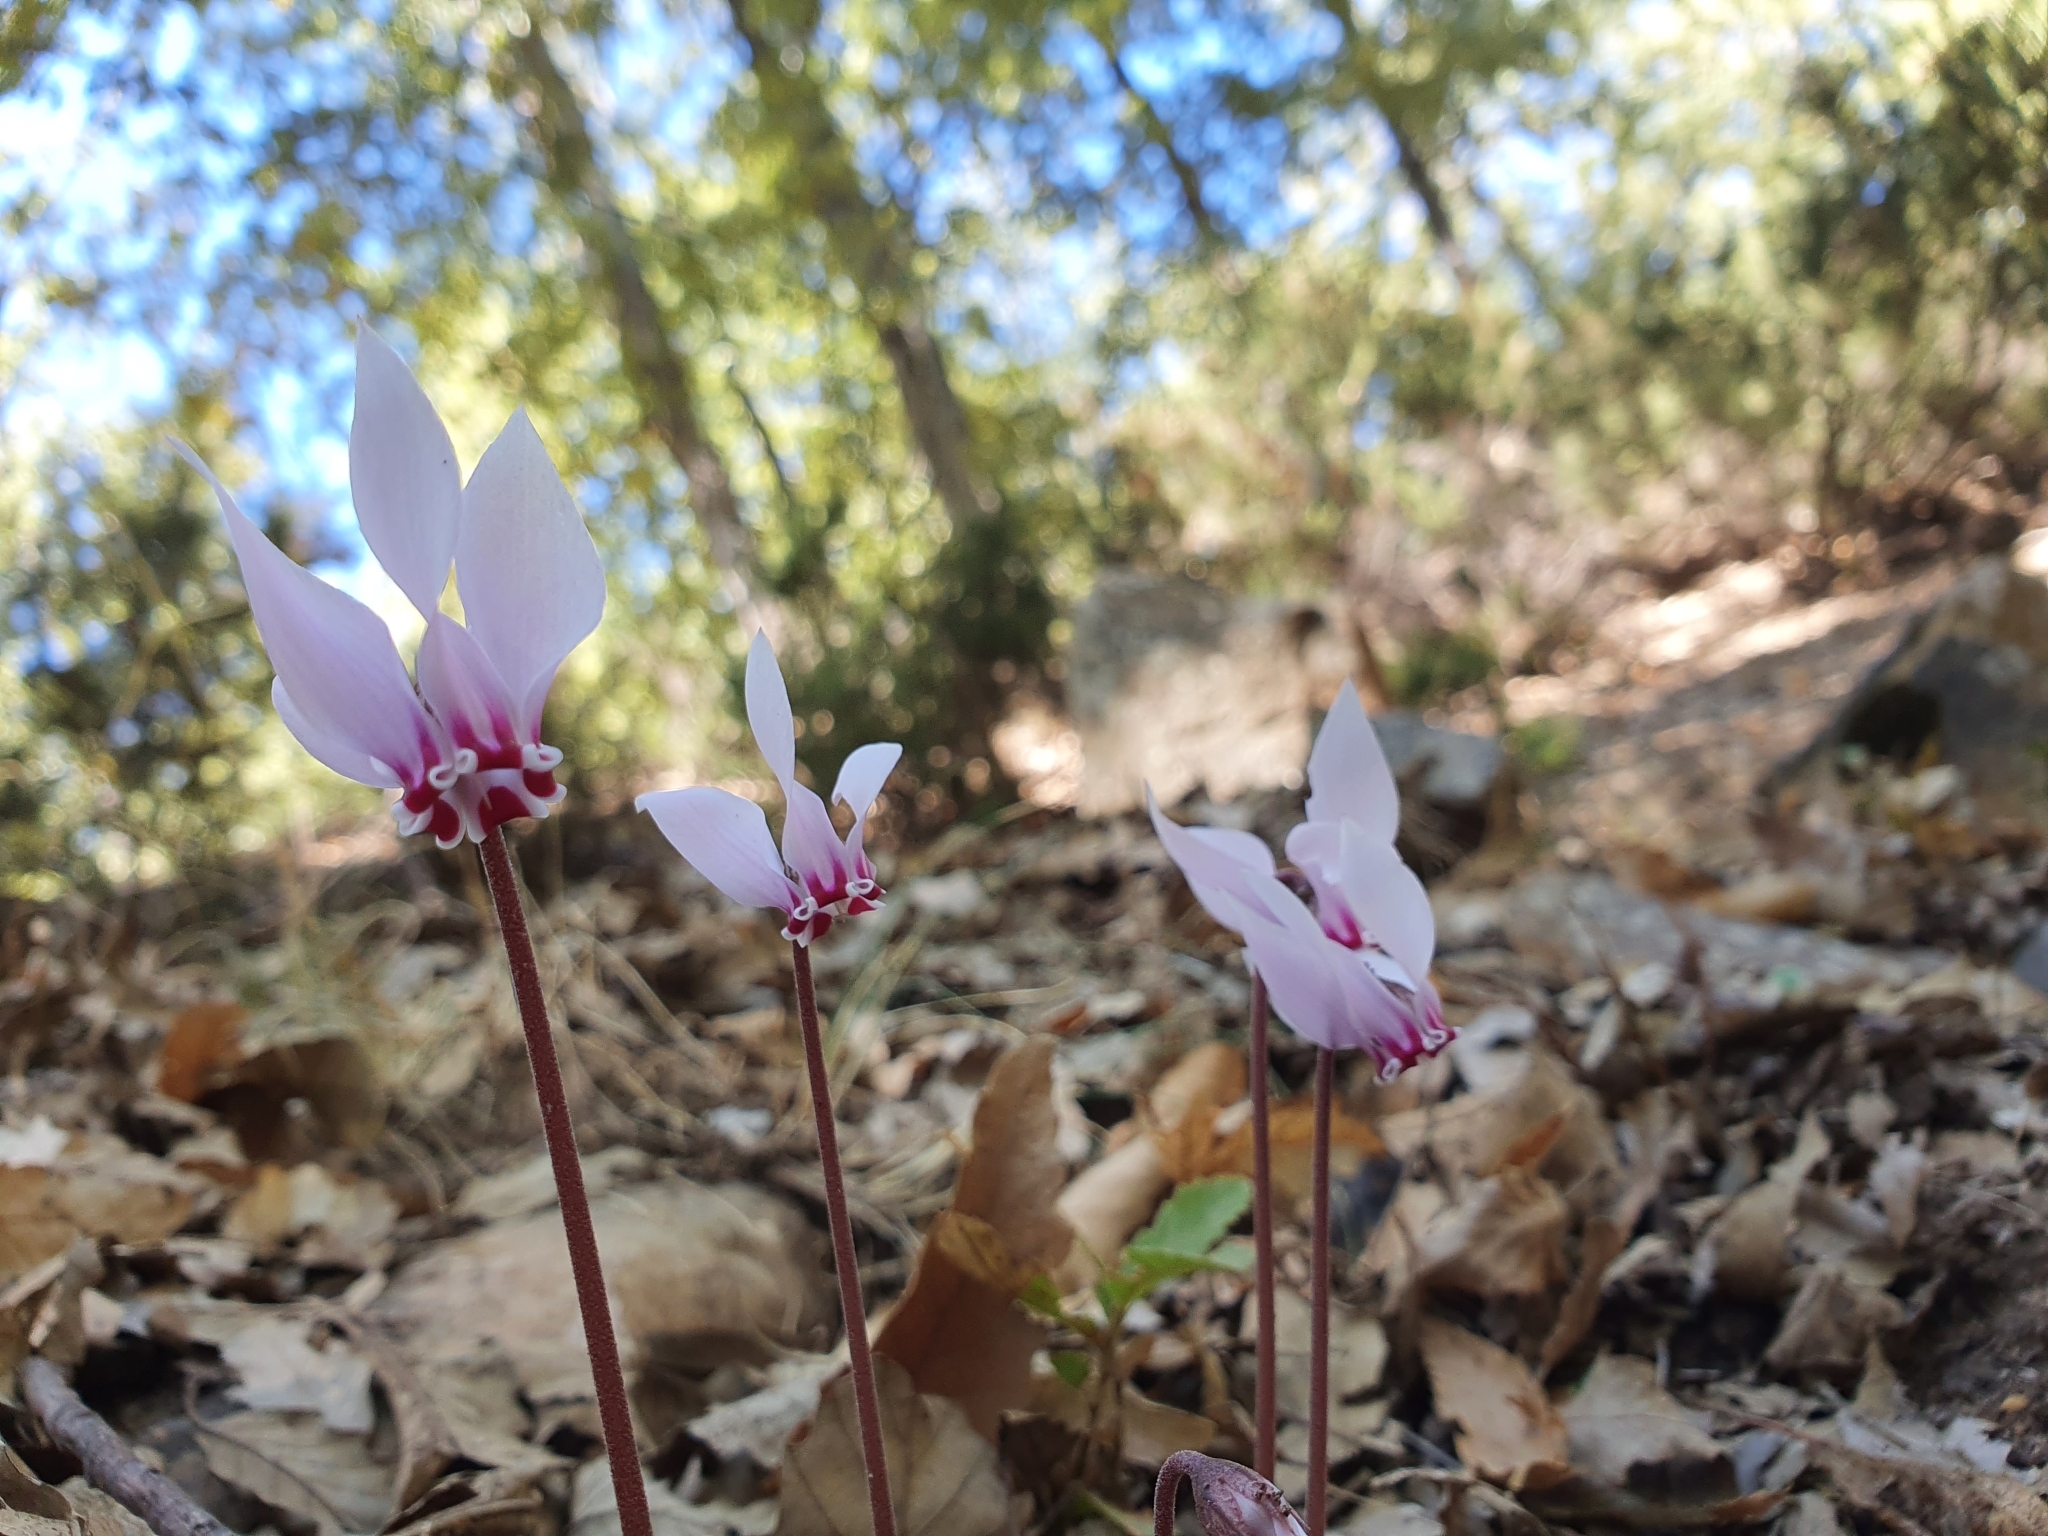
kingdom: Plantae
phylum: Tracheophyta
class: Magnoliopsida
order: Ericales
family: Primulaceae
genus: Cyclamen
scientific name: Cyclamen africanum
